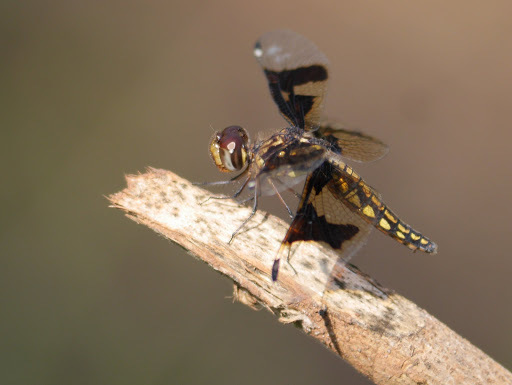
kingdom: Animalia
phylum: Arthropoda
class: Insecta
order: Odonata
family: Libellulidae
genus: Palpopleura
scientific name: Palpopleura lucia
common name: Lucia widow
